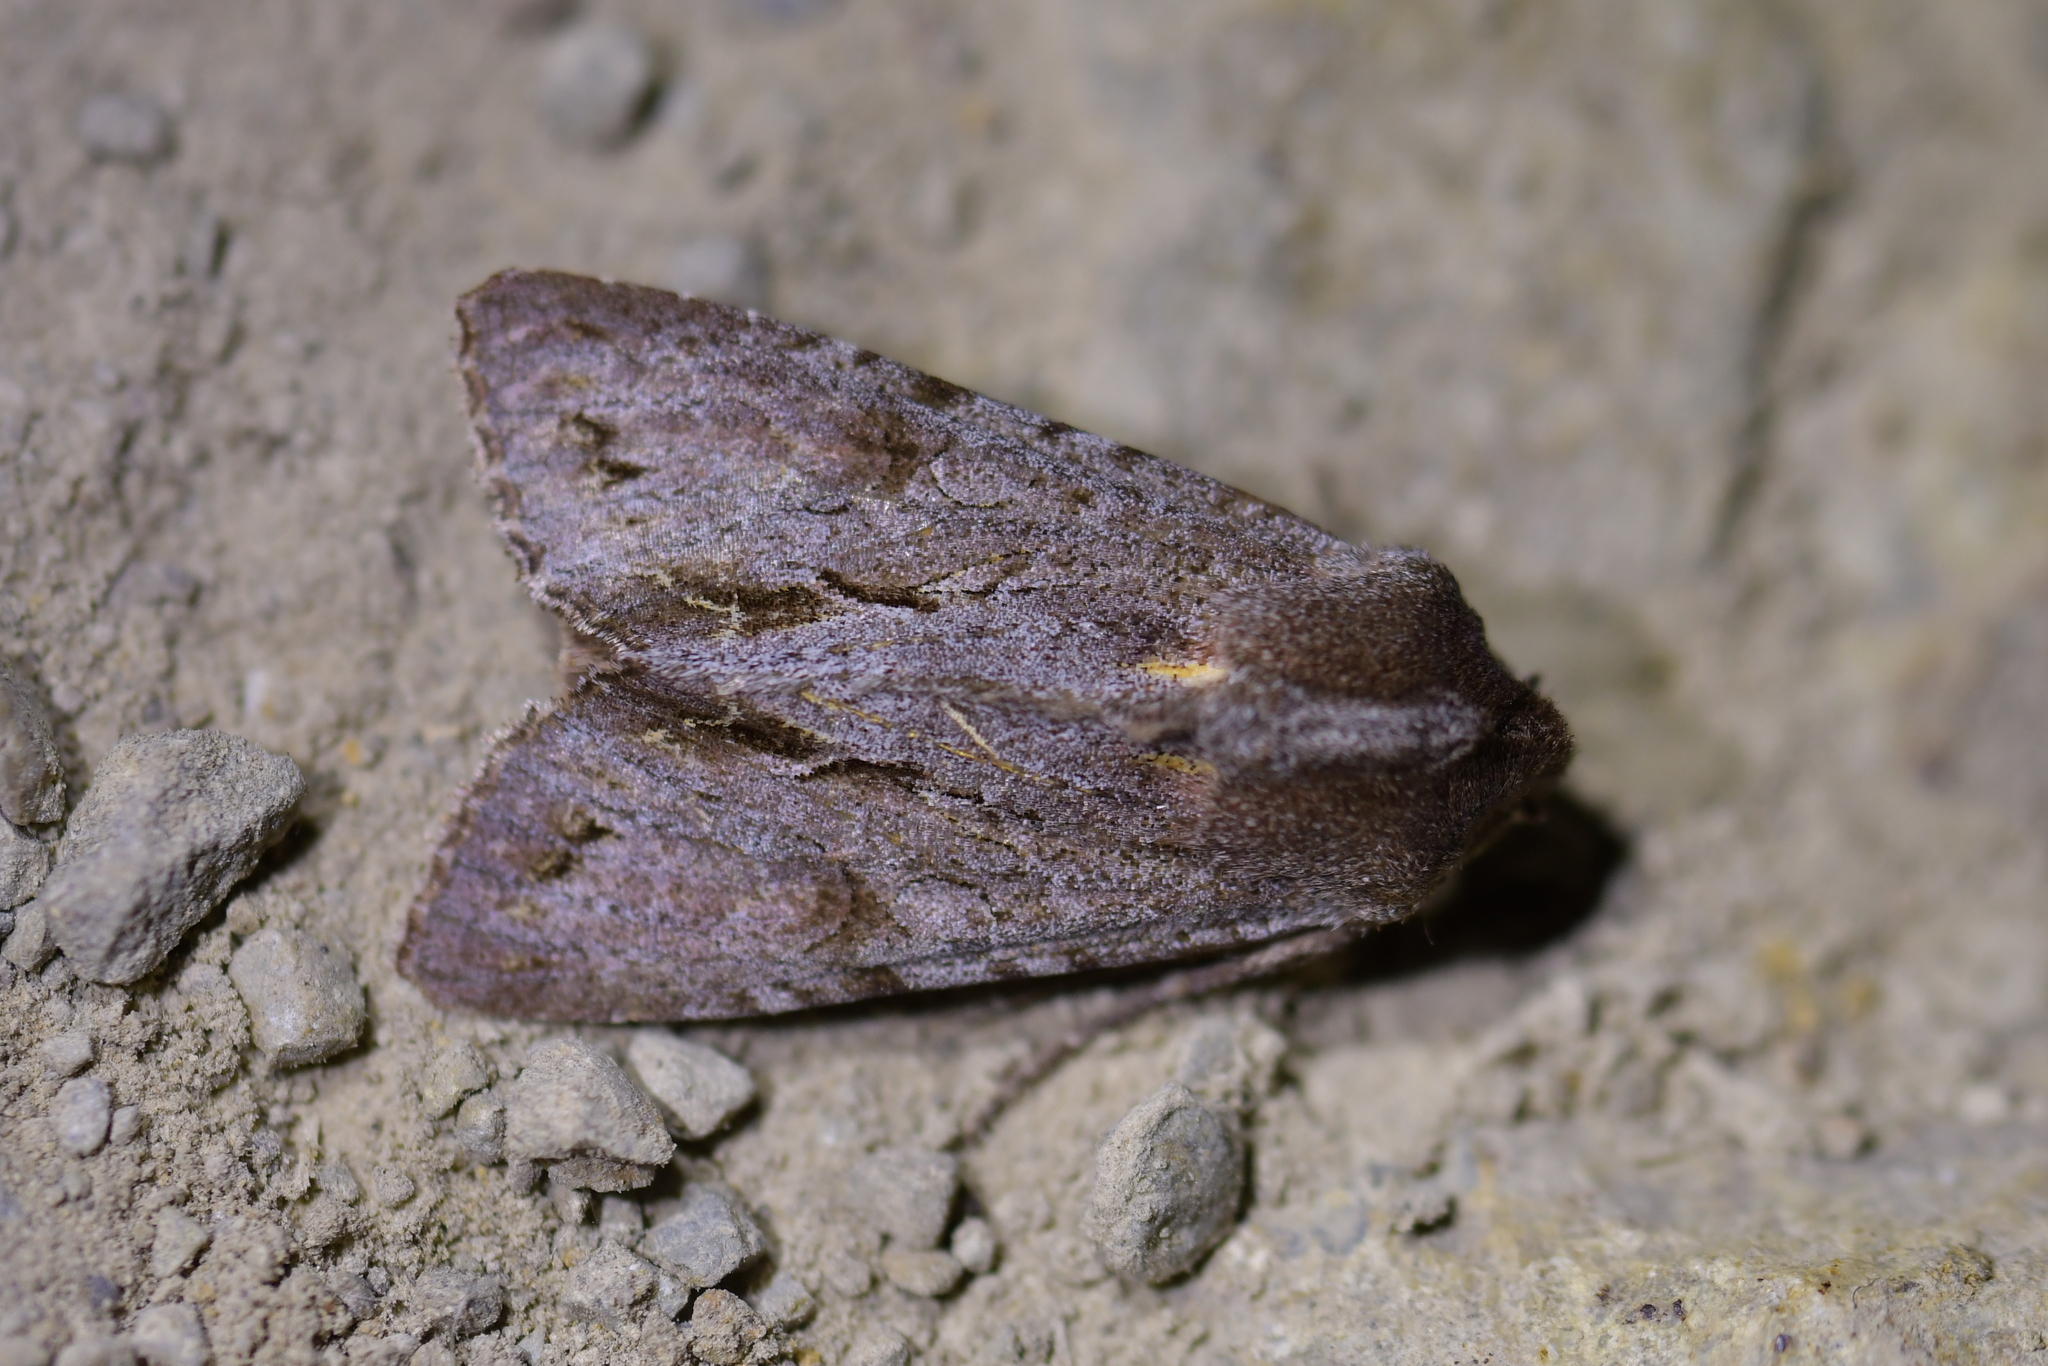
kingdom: Animalia
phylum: Arthropoda
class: Insecta
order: Lepidoptera
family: Noctuidae
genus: Ichneutica
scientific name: Ichneutica
